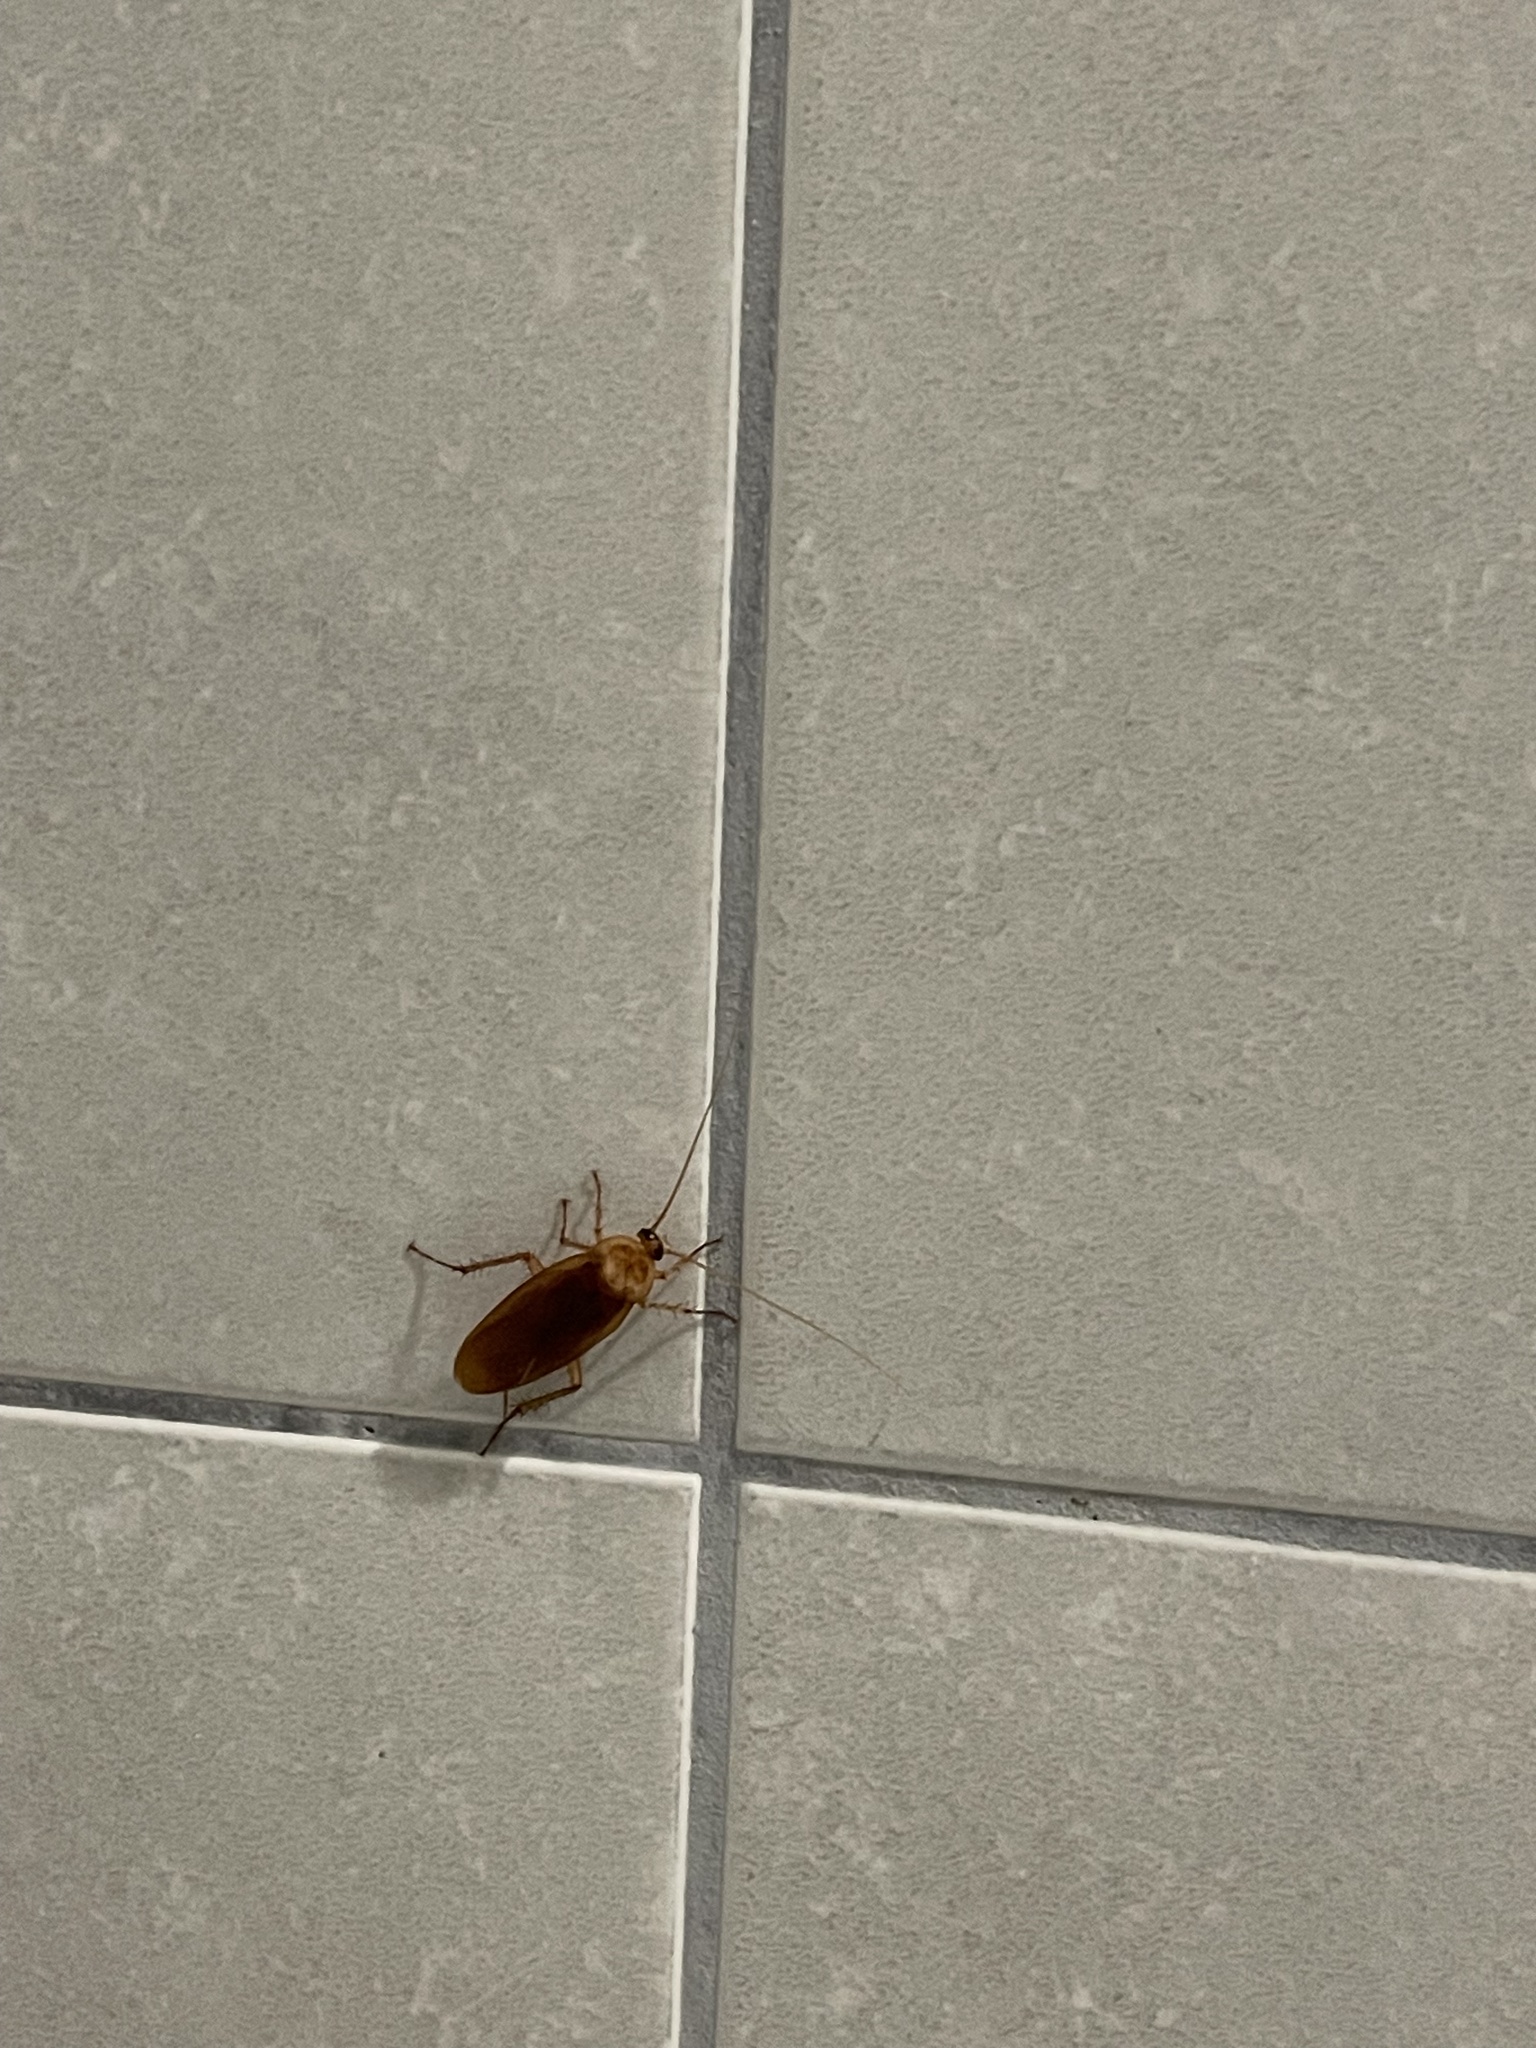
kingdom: Animalia
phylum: Arthropoda
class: Insecta
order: Blattodea
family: Blattidae
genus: Periplaneta
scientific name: Periplaneta americana
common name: American cockroach
